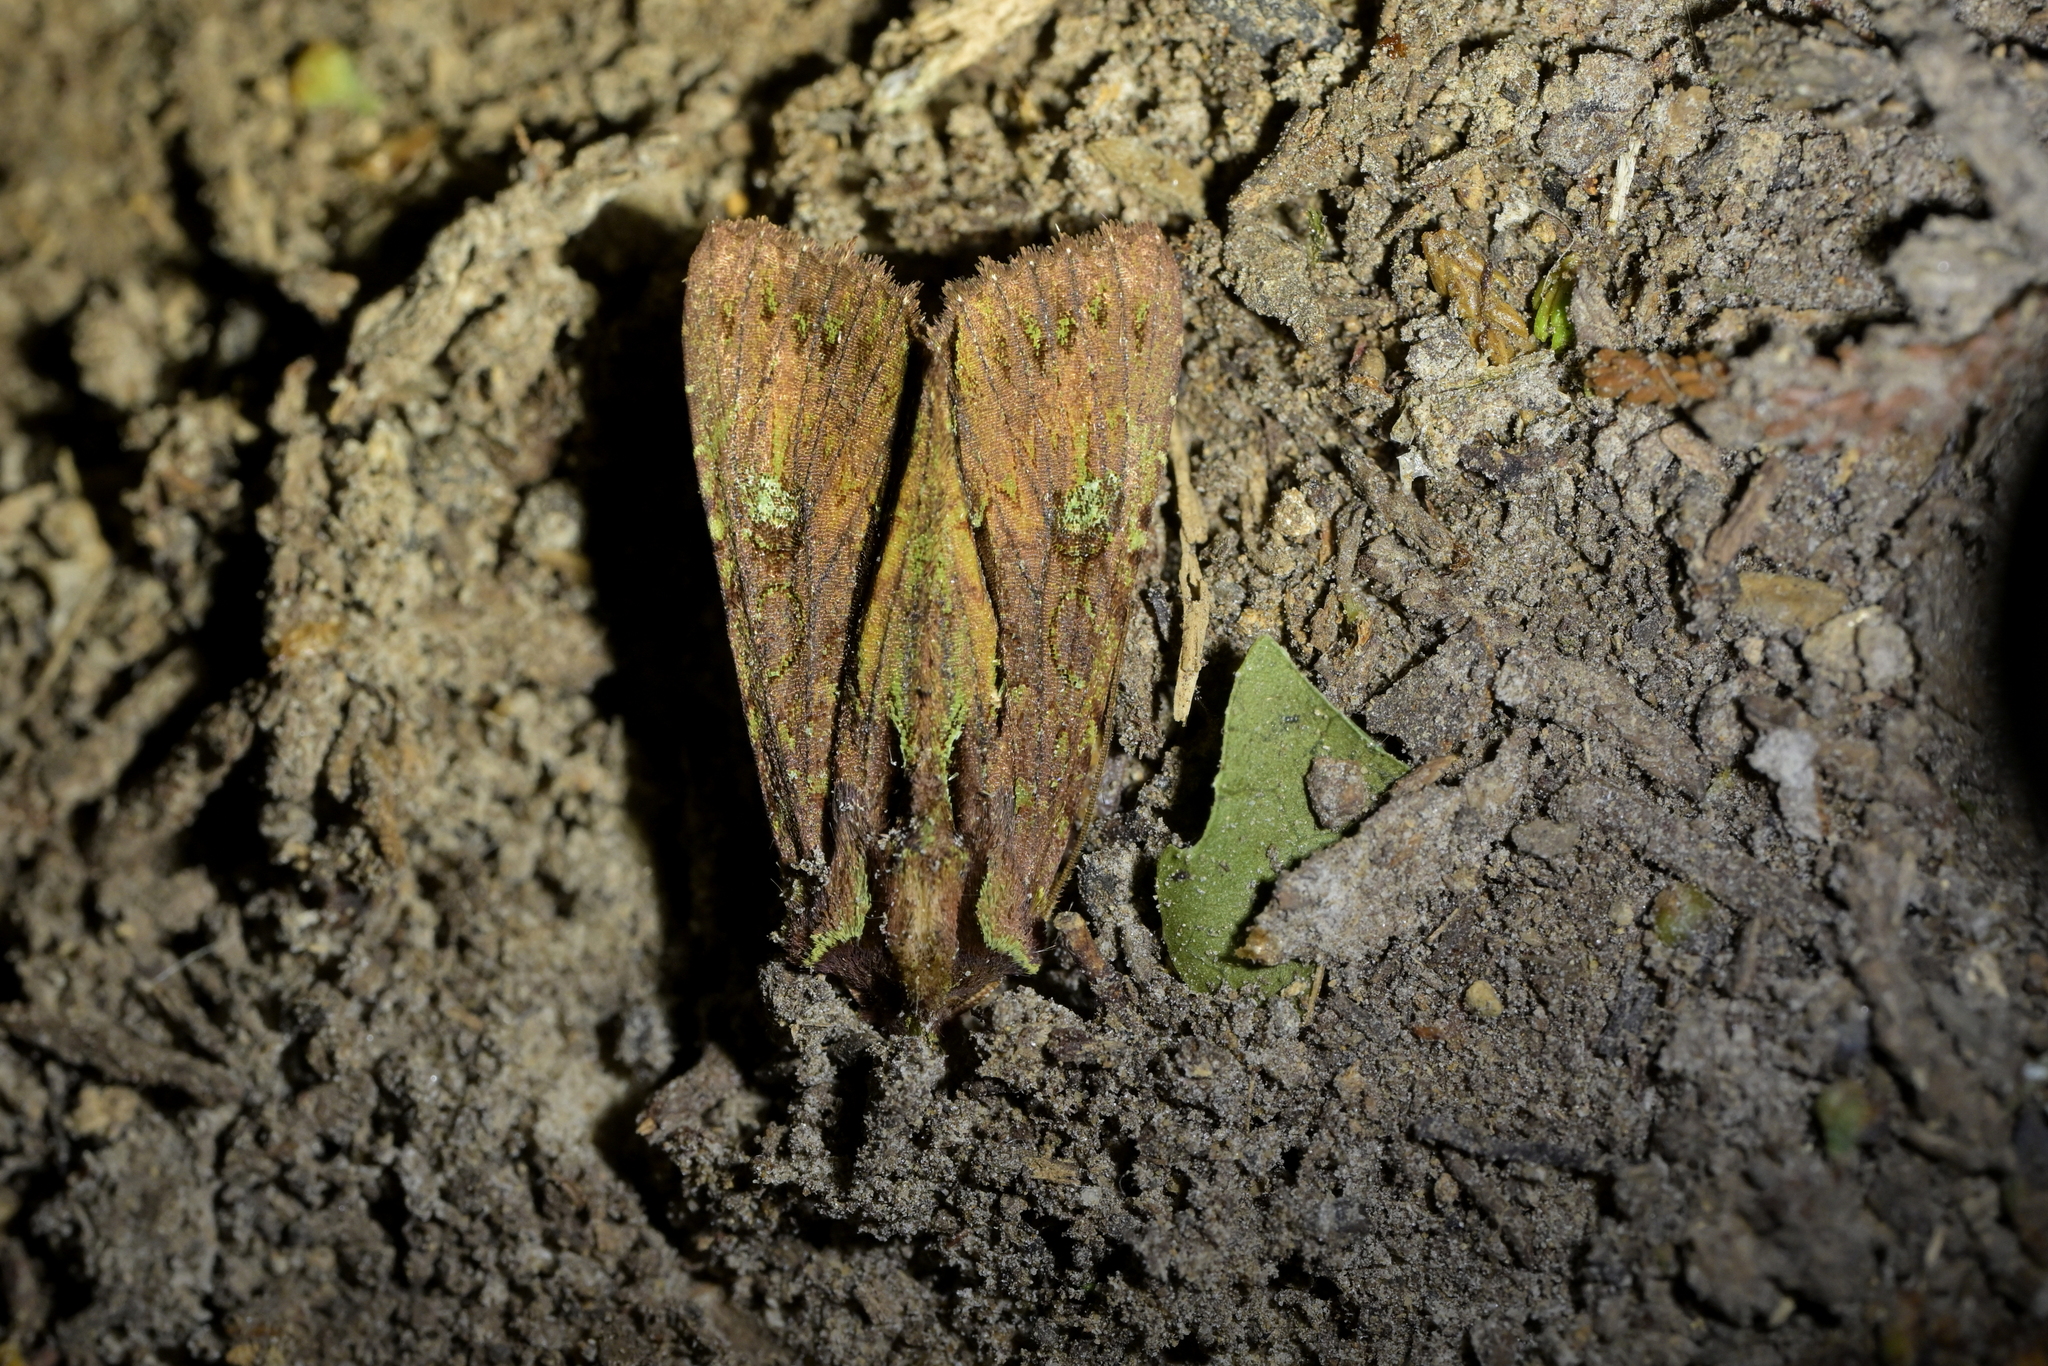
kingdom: Animalia
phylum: Arthropoda
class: Insecta
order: Lepidoptera
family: Noctuidae
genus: Meterana
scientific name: Meterana diatmeta
